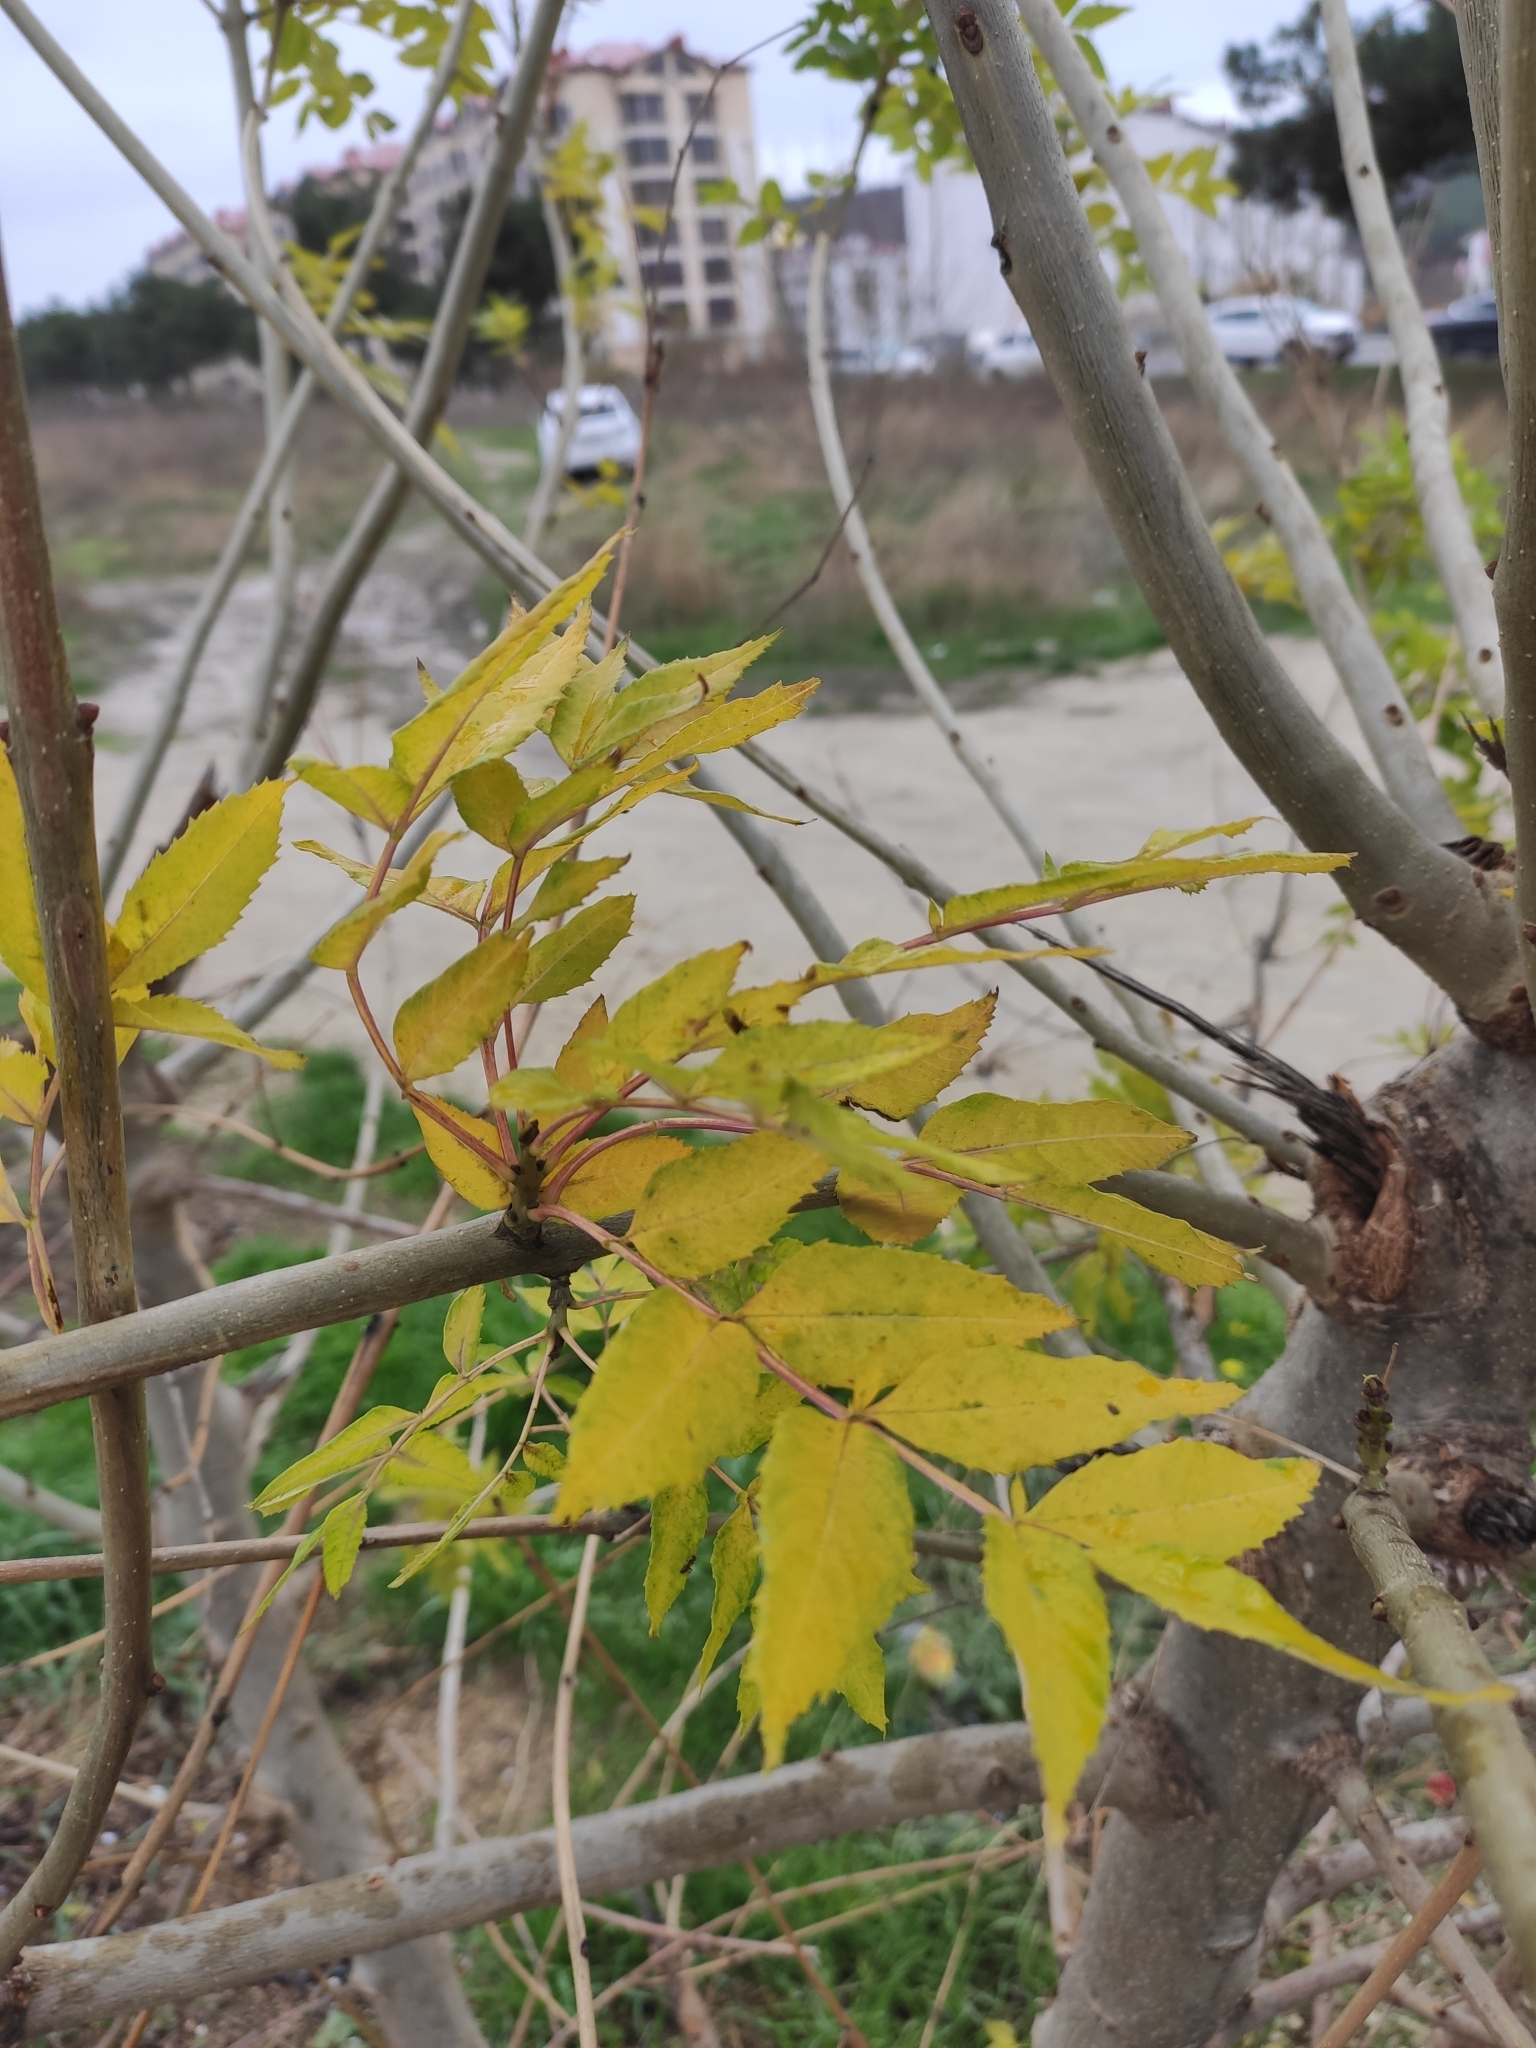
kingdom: Plantae
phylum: Tracheophyta
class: Magnoliopsida
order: Lamiales
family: Oleaceae
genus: Fraxinus
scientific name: Fraxinus excelsior
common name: European ash
